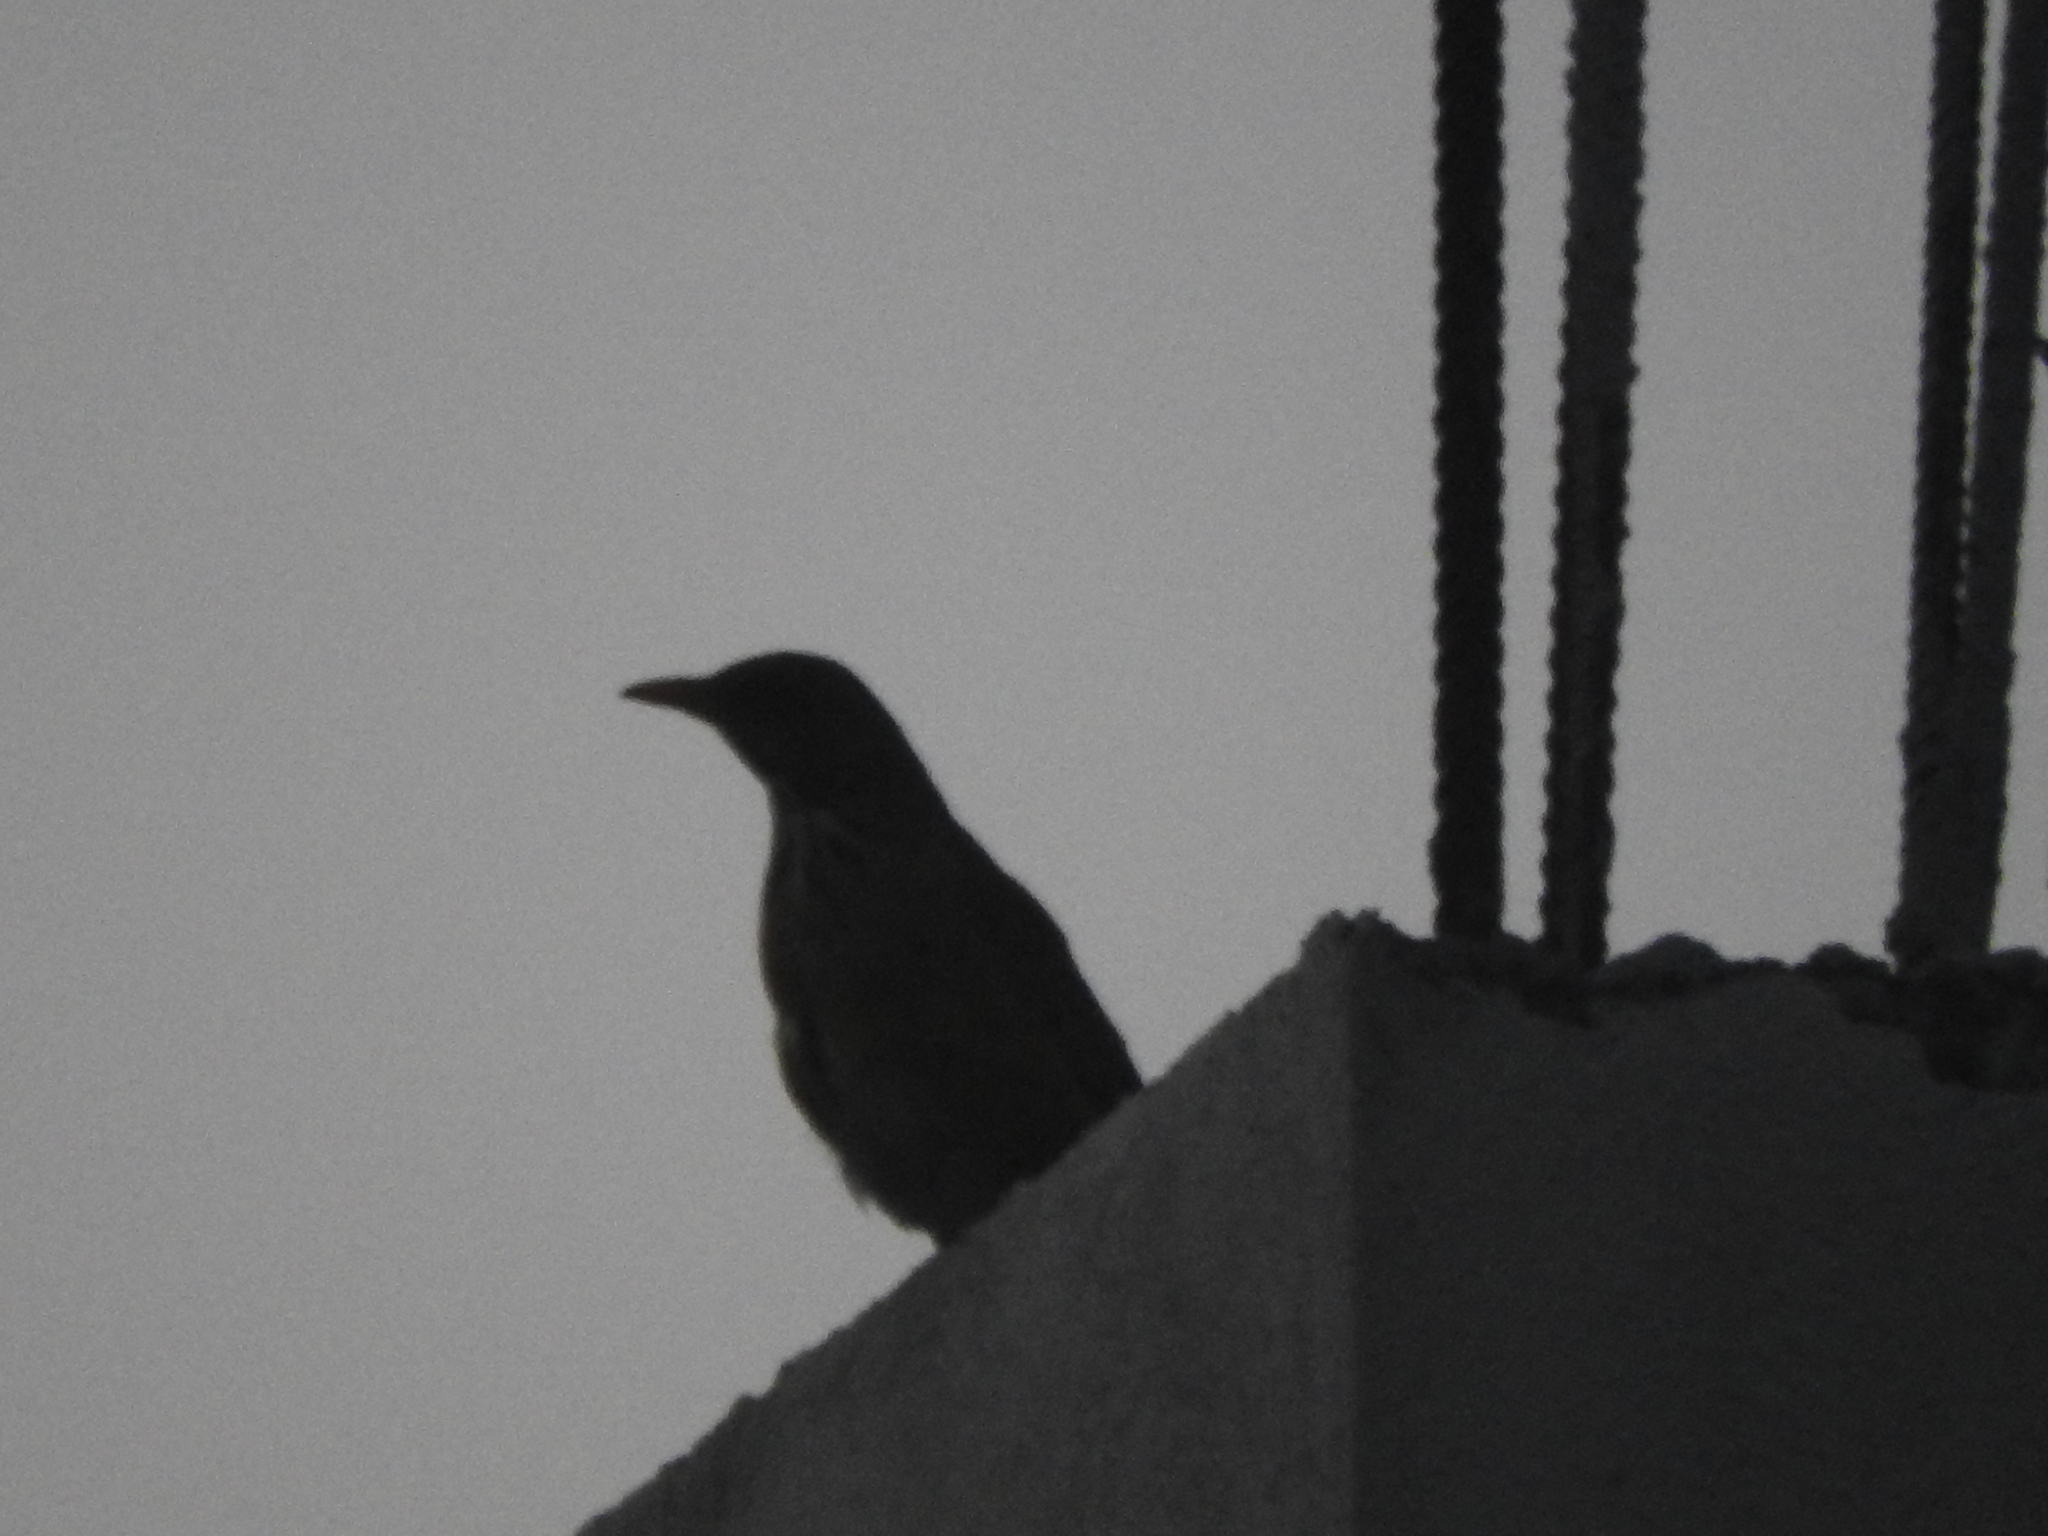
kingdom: Animalia
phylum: Chordata
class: Aves
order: Passeriformes
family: Turdidae
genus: Turdus
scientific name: Turdus rufopalliatus
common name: Rufous-backed robin
